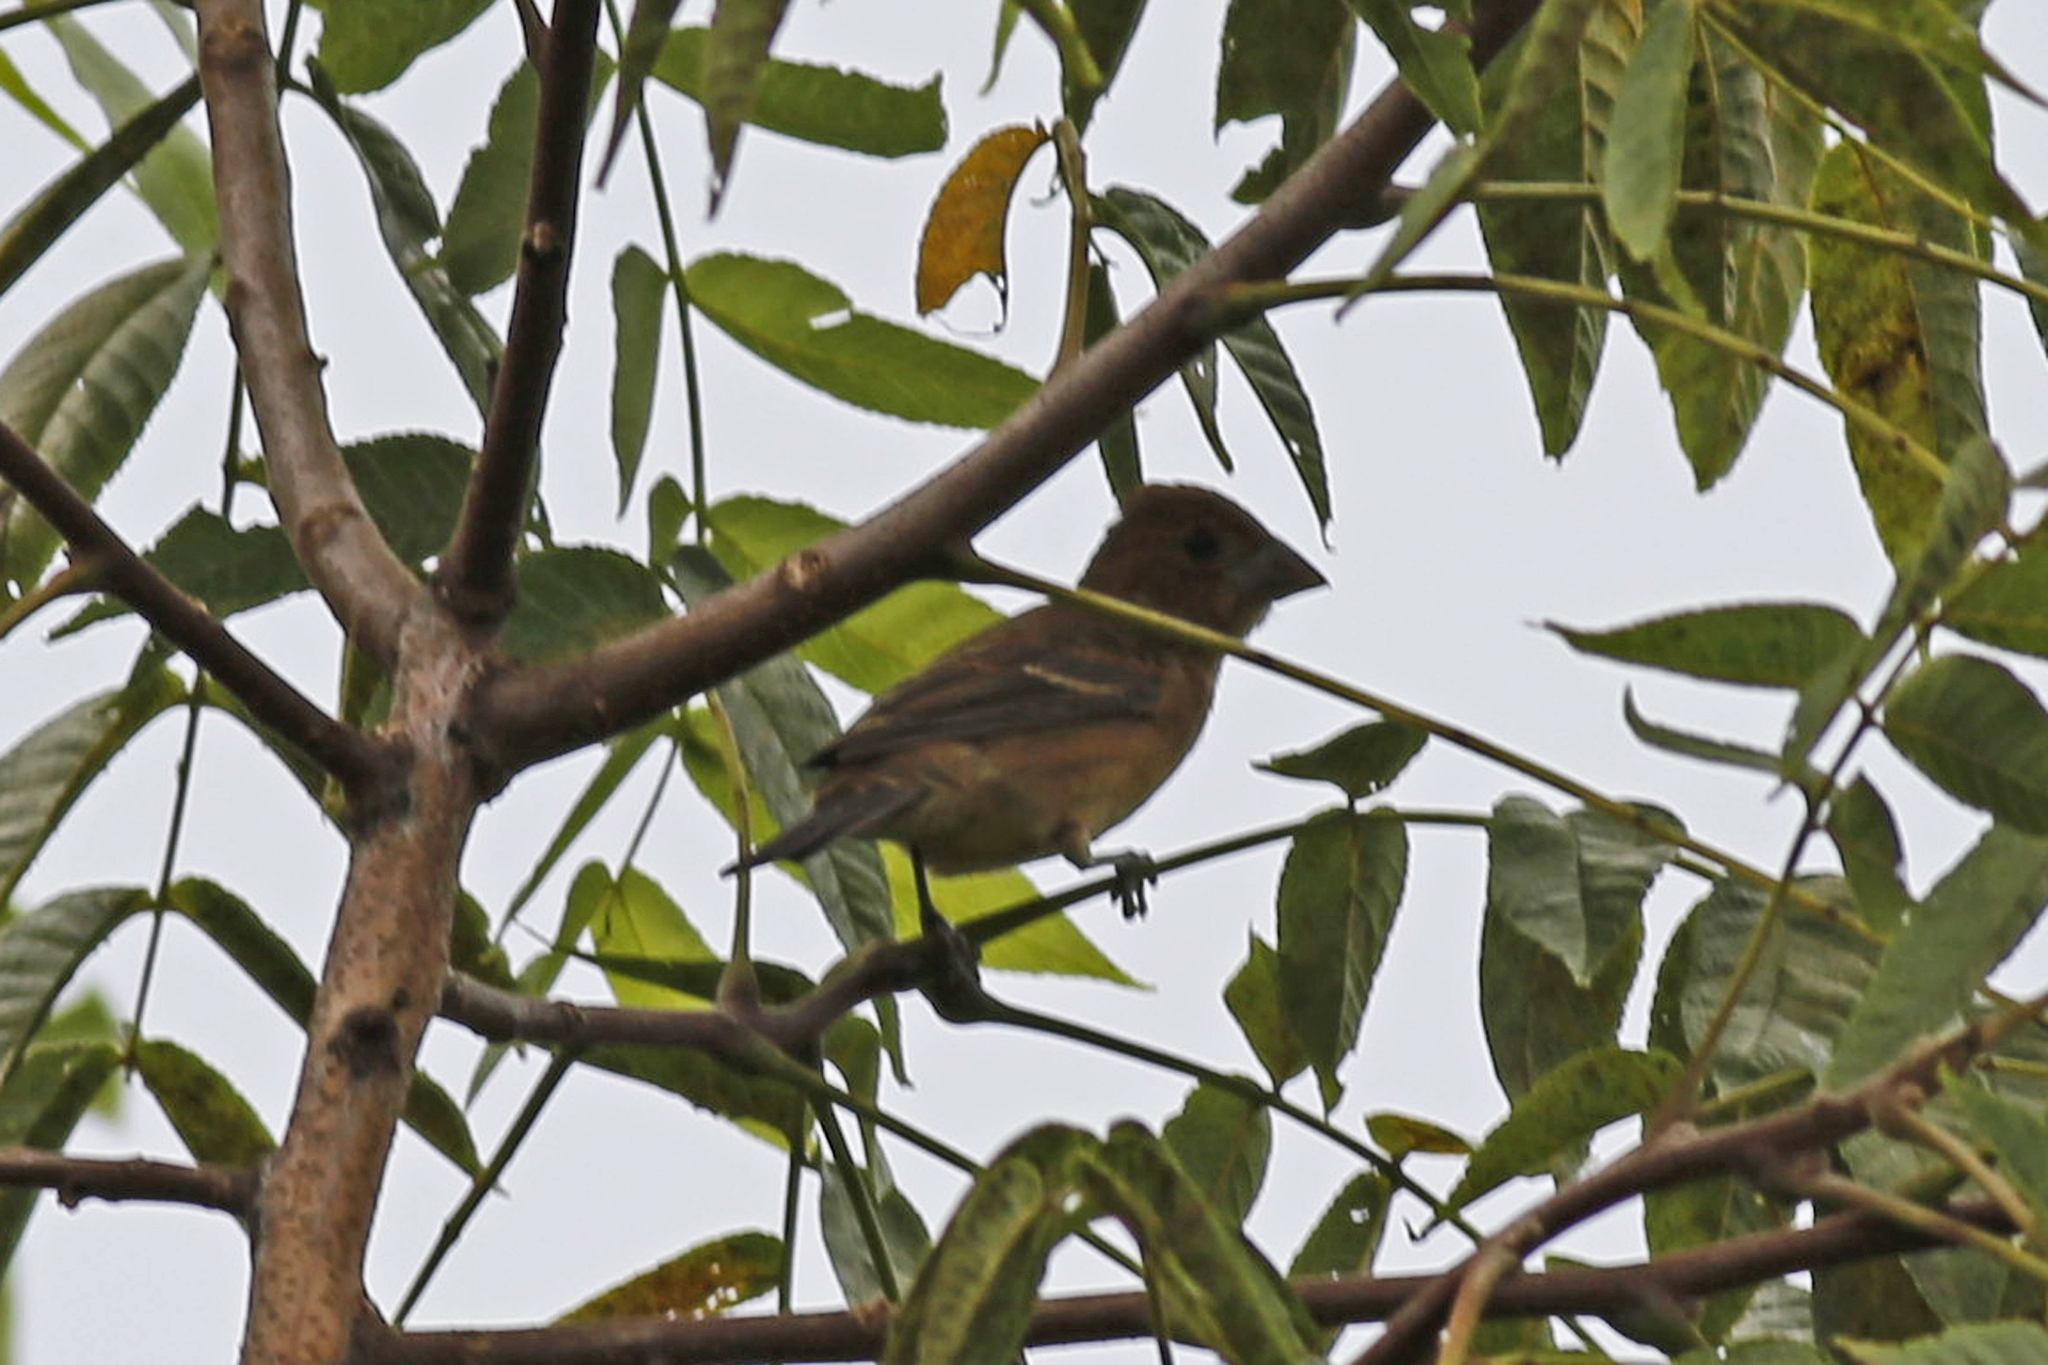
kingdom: Animalia
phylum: Chordata
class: Aves
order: Passeriformes
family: Cardinalidae
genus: Passerina
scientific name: Passerina caerulea
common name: Blue grosbeak
